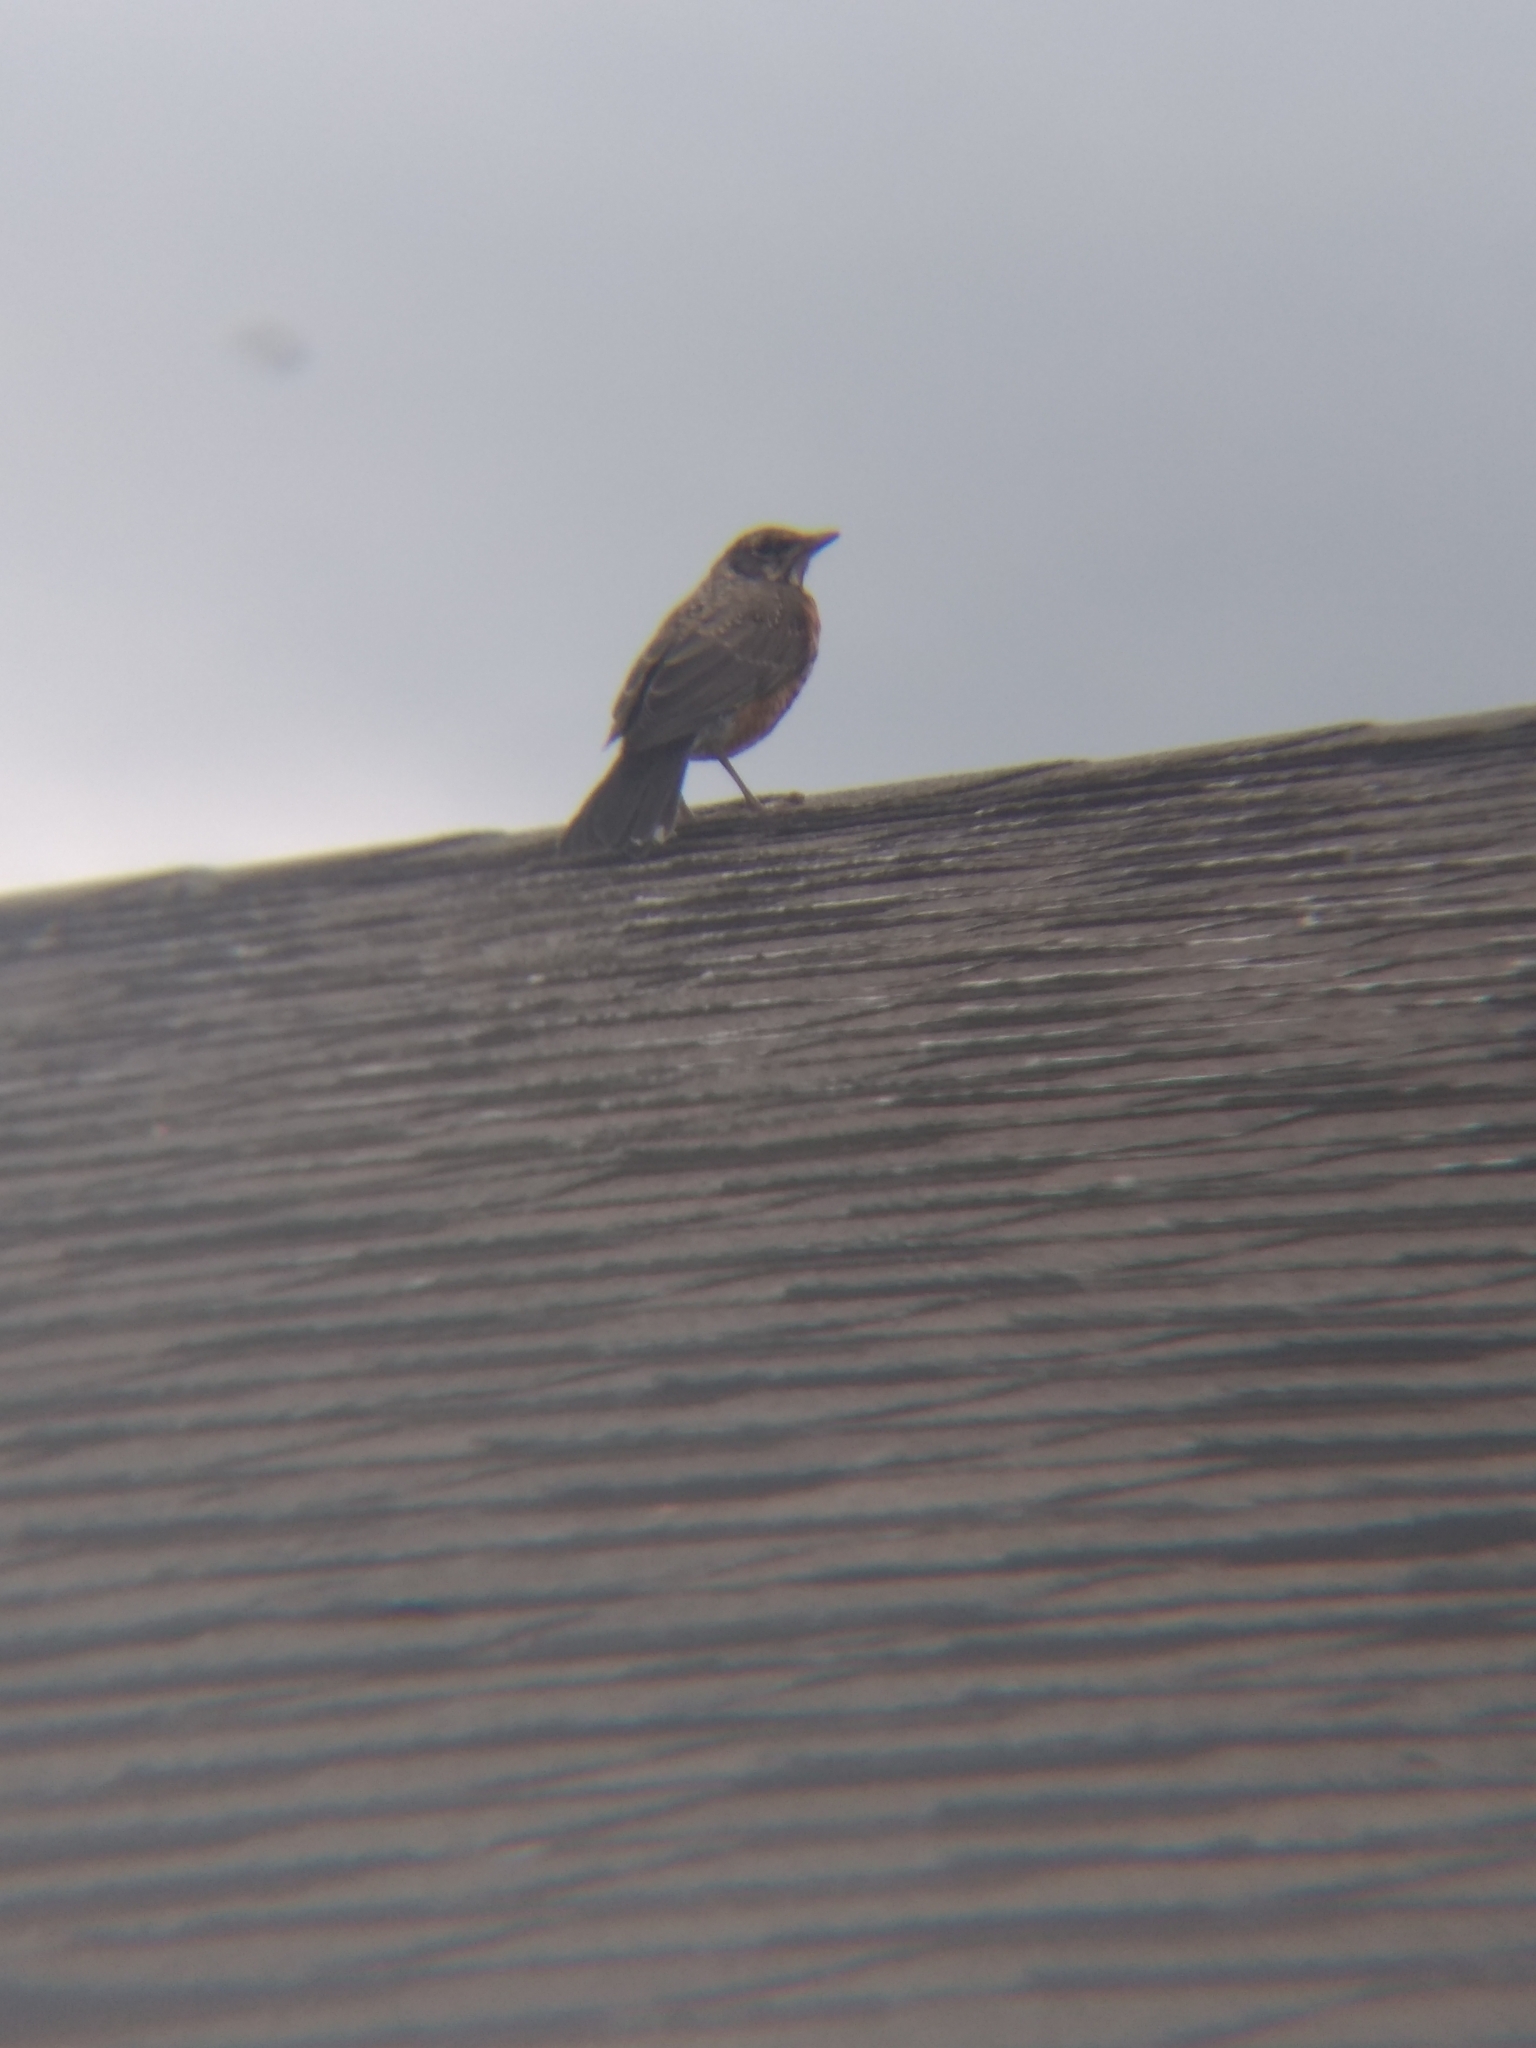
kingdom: Animalia
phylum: Chordata
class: Aves
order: Passeriformes
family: Turdidae
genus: Turdus
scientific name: Turdus migratorius
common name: American robin
